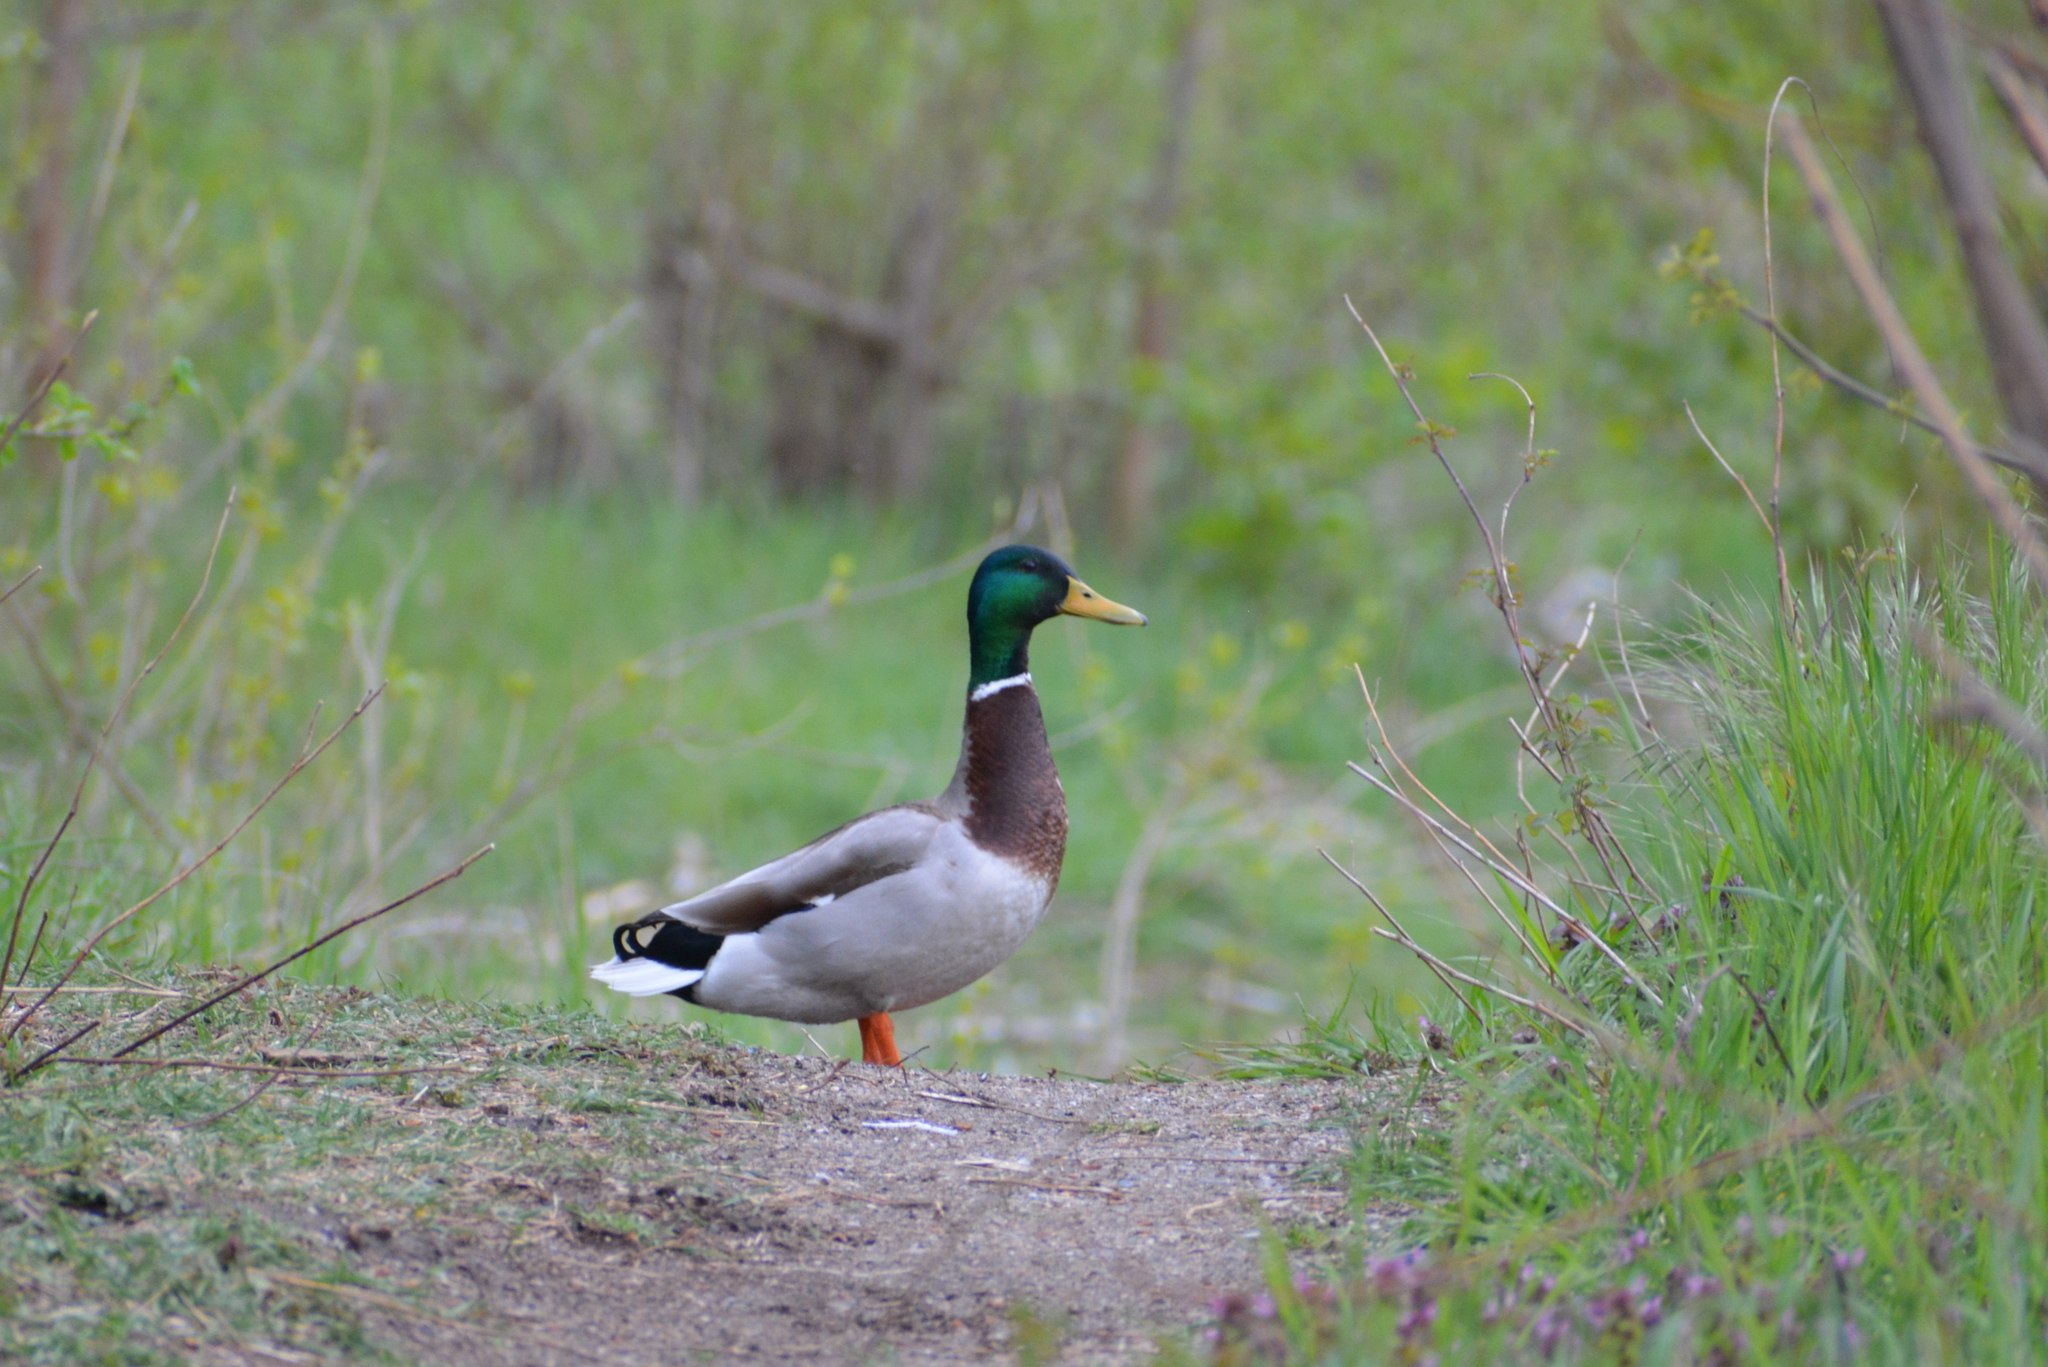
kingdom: Animalia
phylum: Chordata
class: Aves
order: Anseriformes
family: Anatidae
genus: Anas
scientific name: Anas platyrhynchos
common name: Mallard
